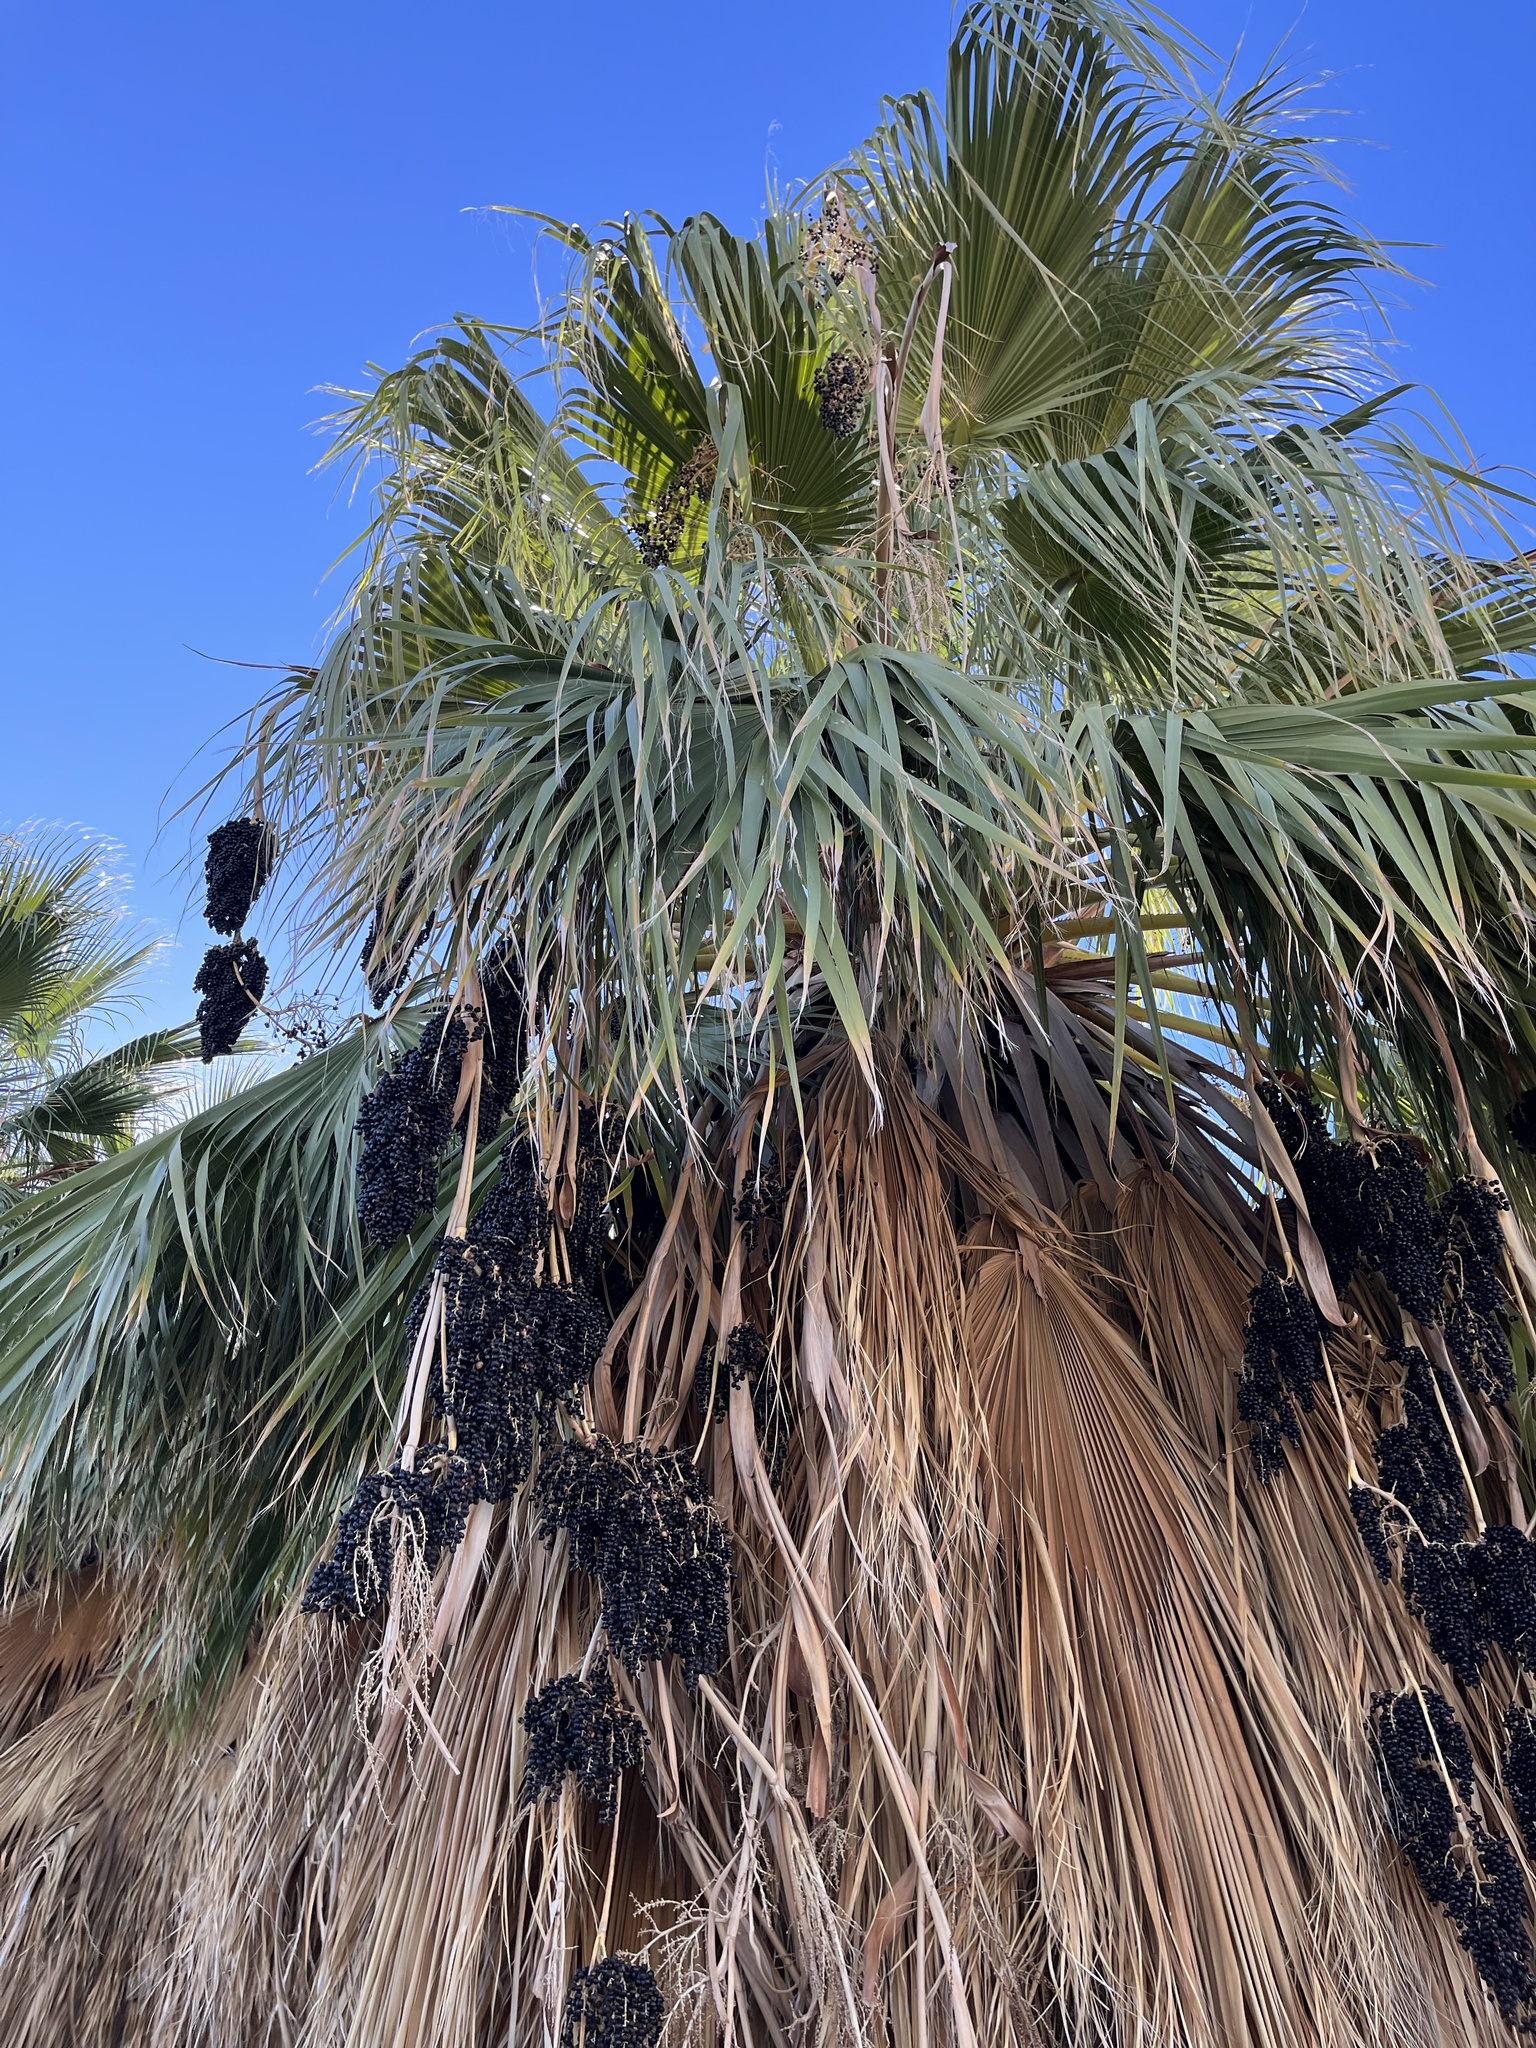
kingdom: Plantae
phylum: Tracheophyta
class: Liliopsida
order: Arecales
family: Arecaceae
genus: Washingtonia
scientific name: Washingtonia filifera
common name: California fan palm
